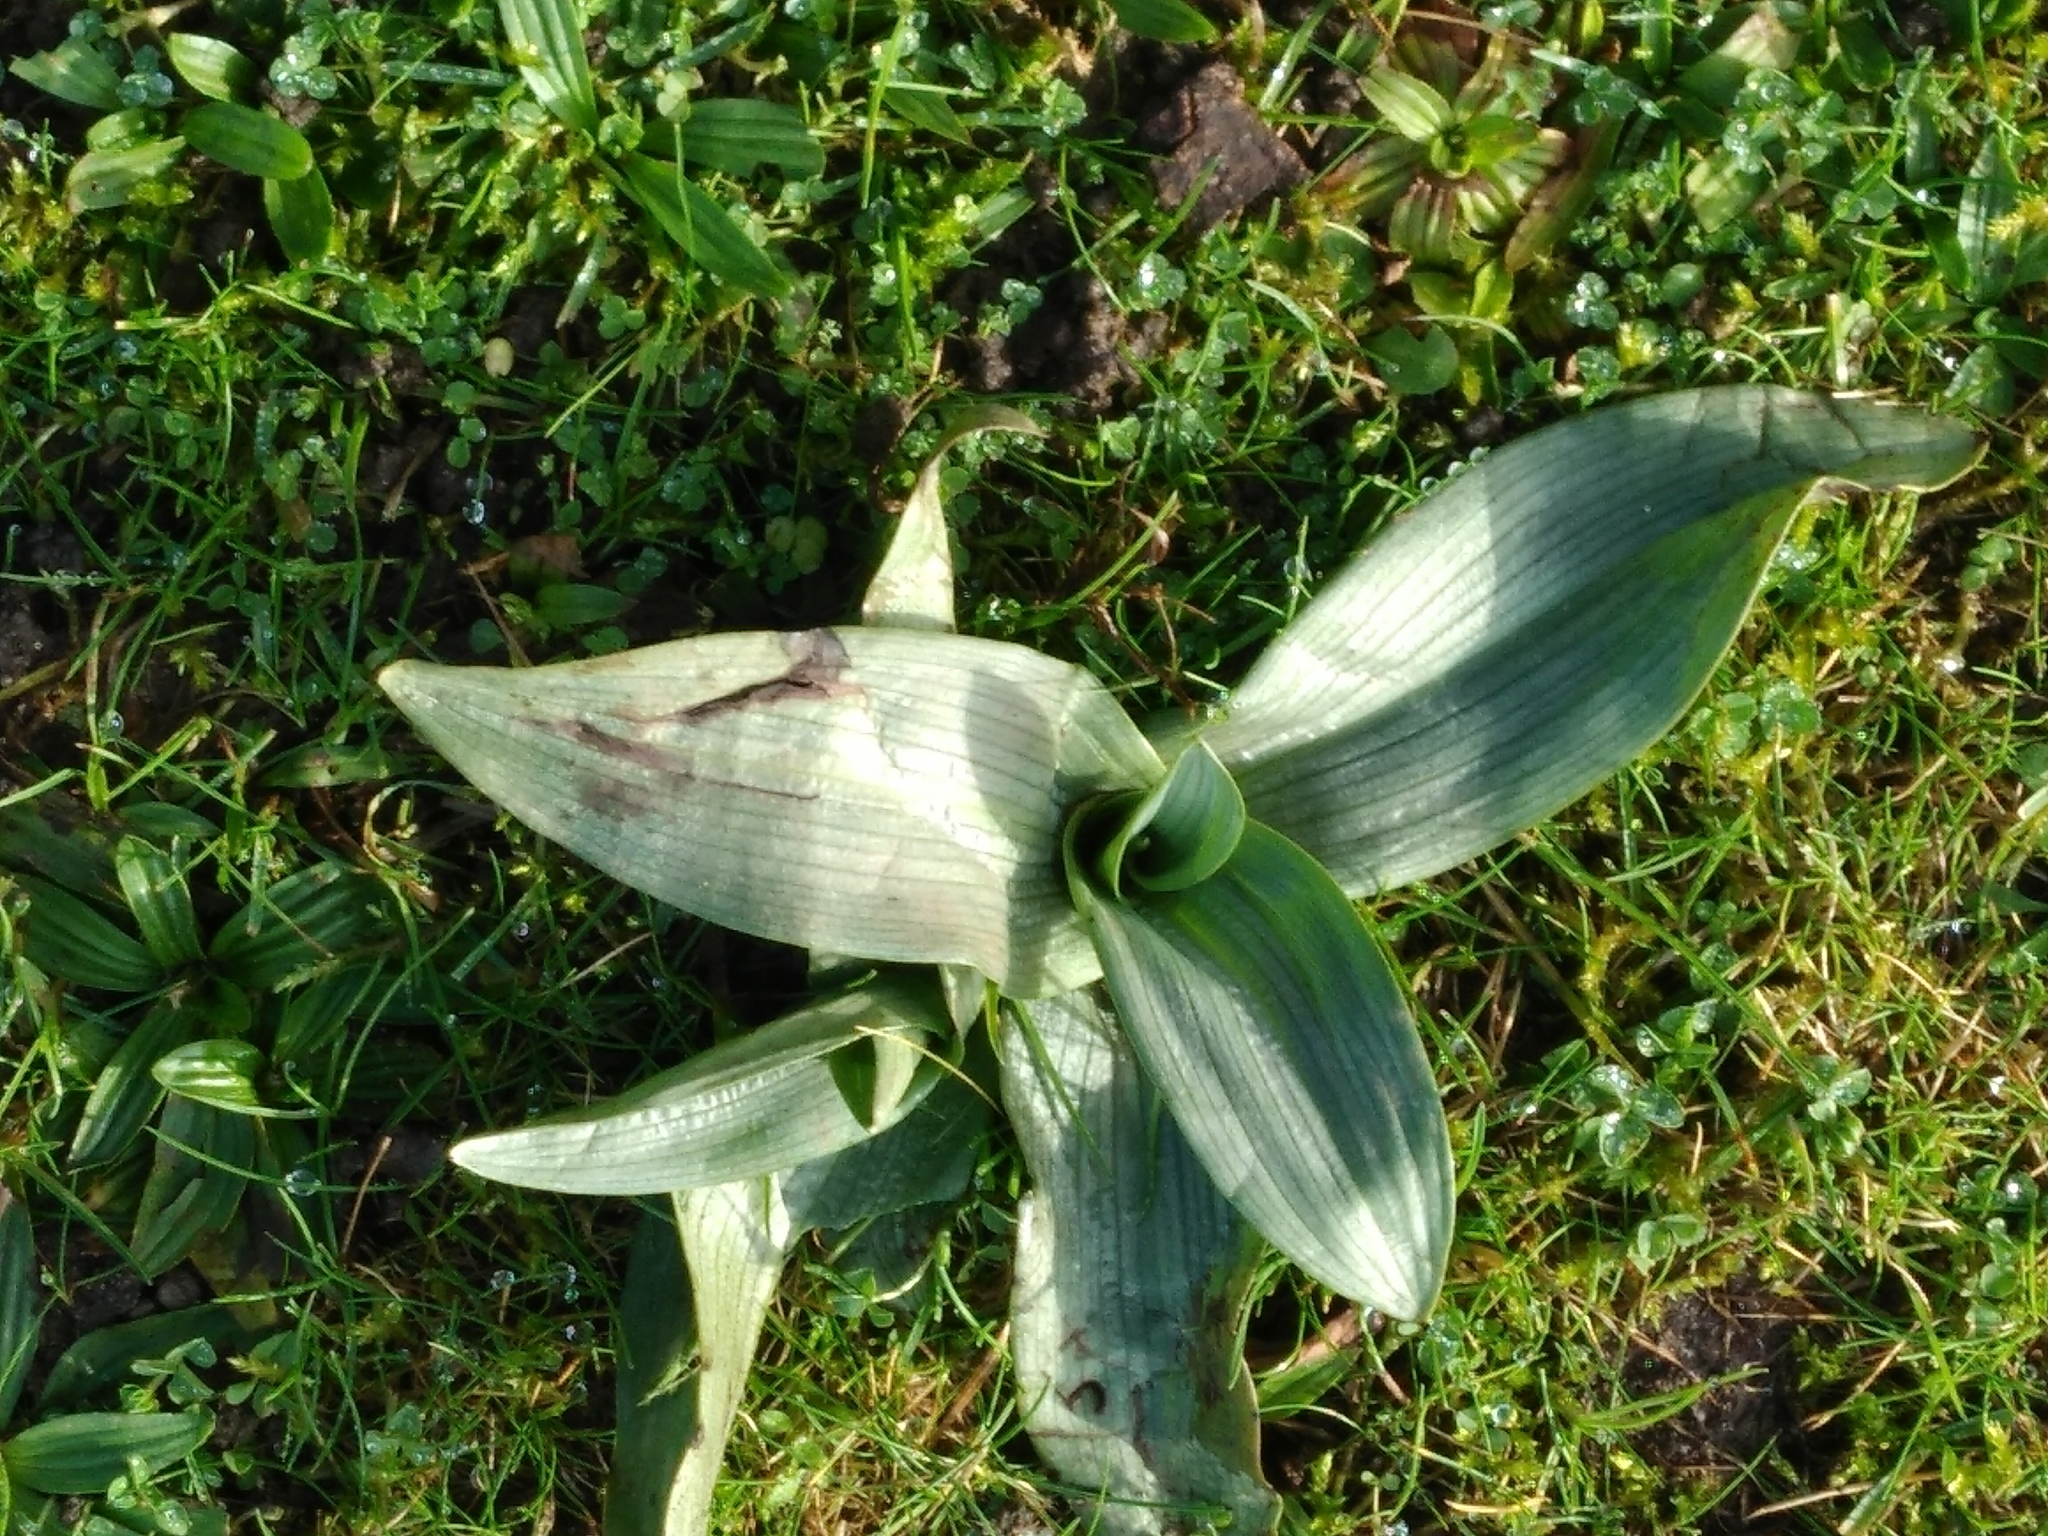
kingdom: Plantae
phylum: Tracheophyta
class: Liliopsida
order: Asparagales
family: Orchidaceae
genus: Ophrys
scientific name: Ophrys apifera
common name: Bee orchid
